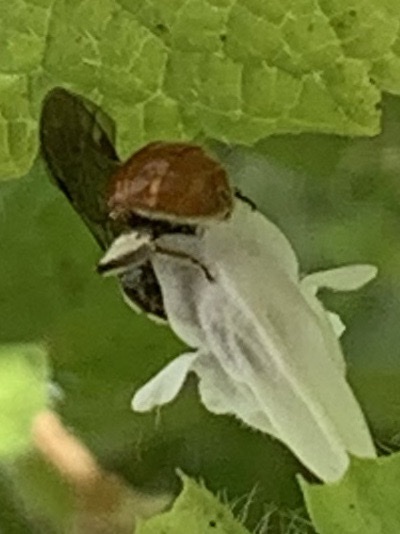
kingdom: Animalia
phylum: Arthropoda
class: Insecta
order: Hymenoptera
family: Halictidae
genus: Lasioglossum
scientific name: Lasioglossum ovaliceps
